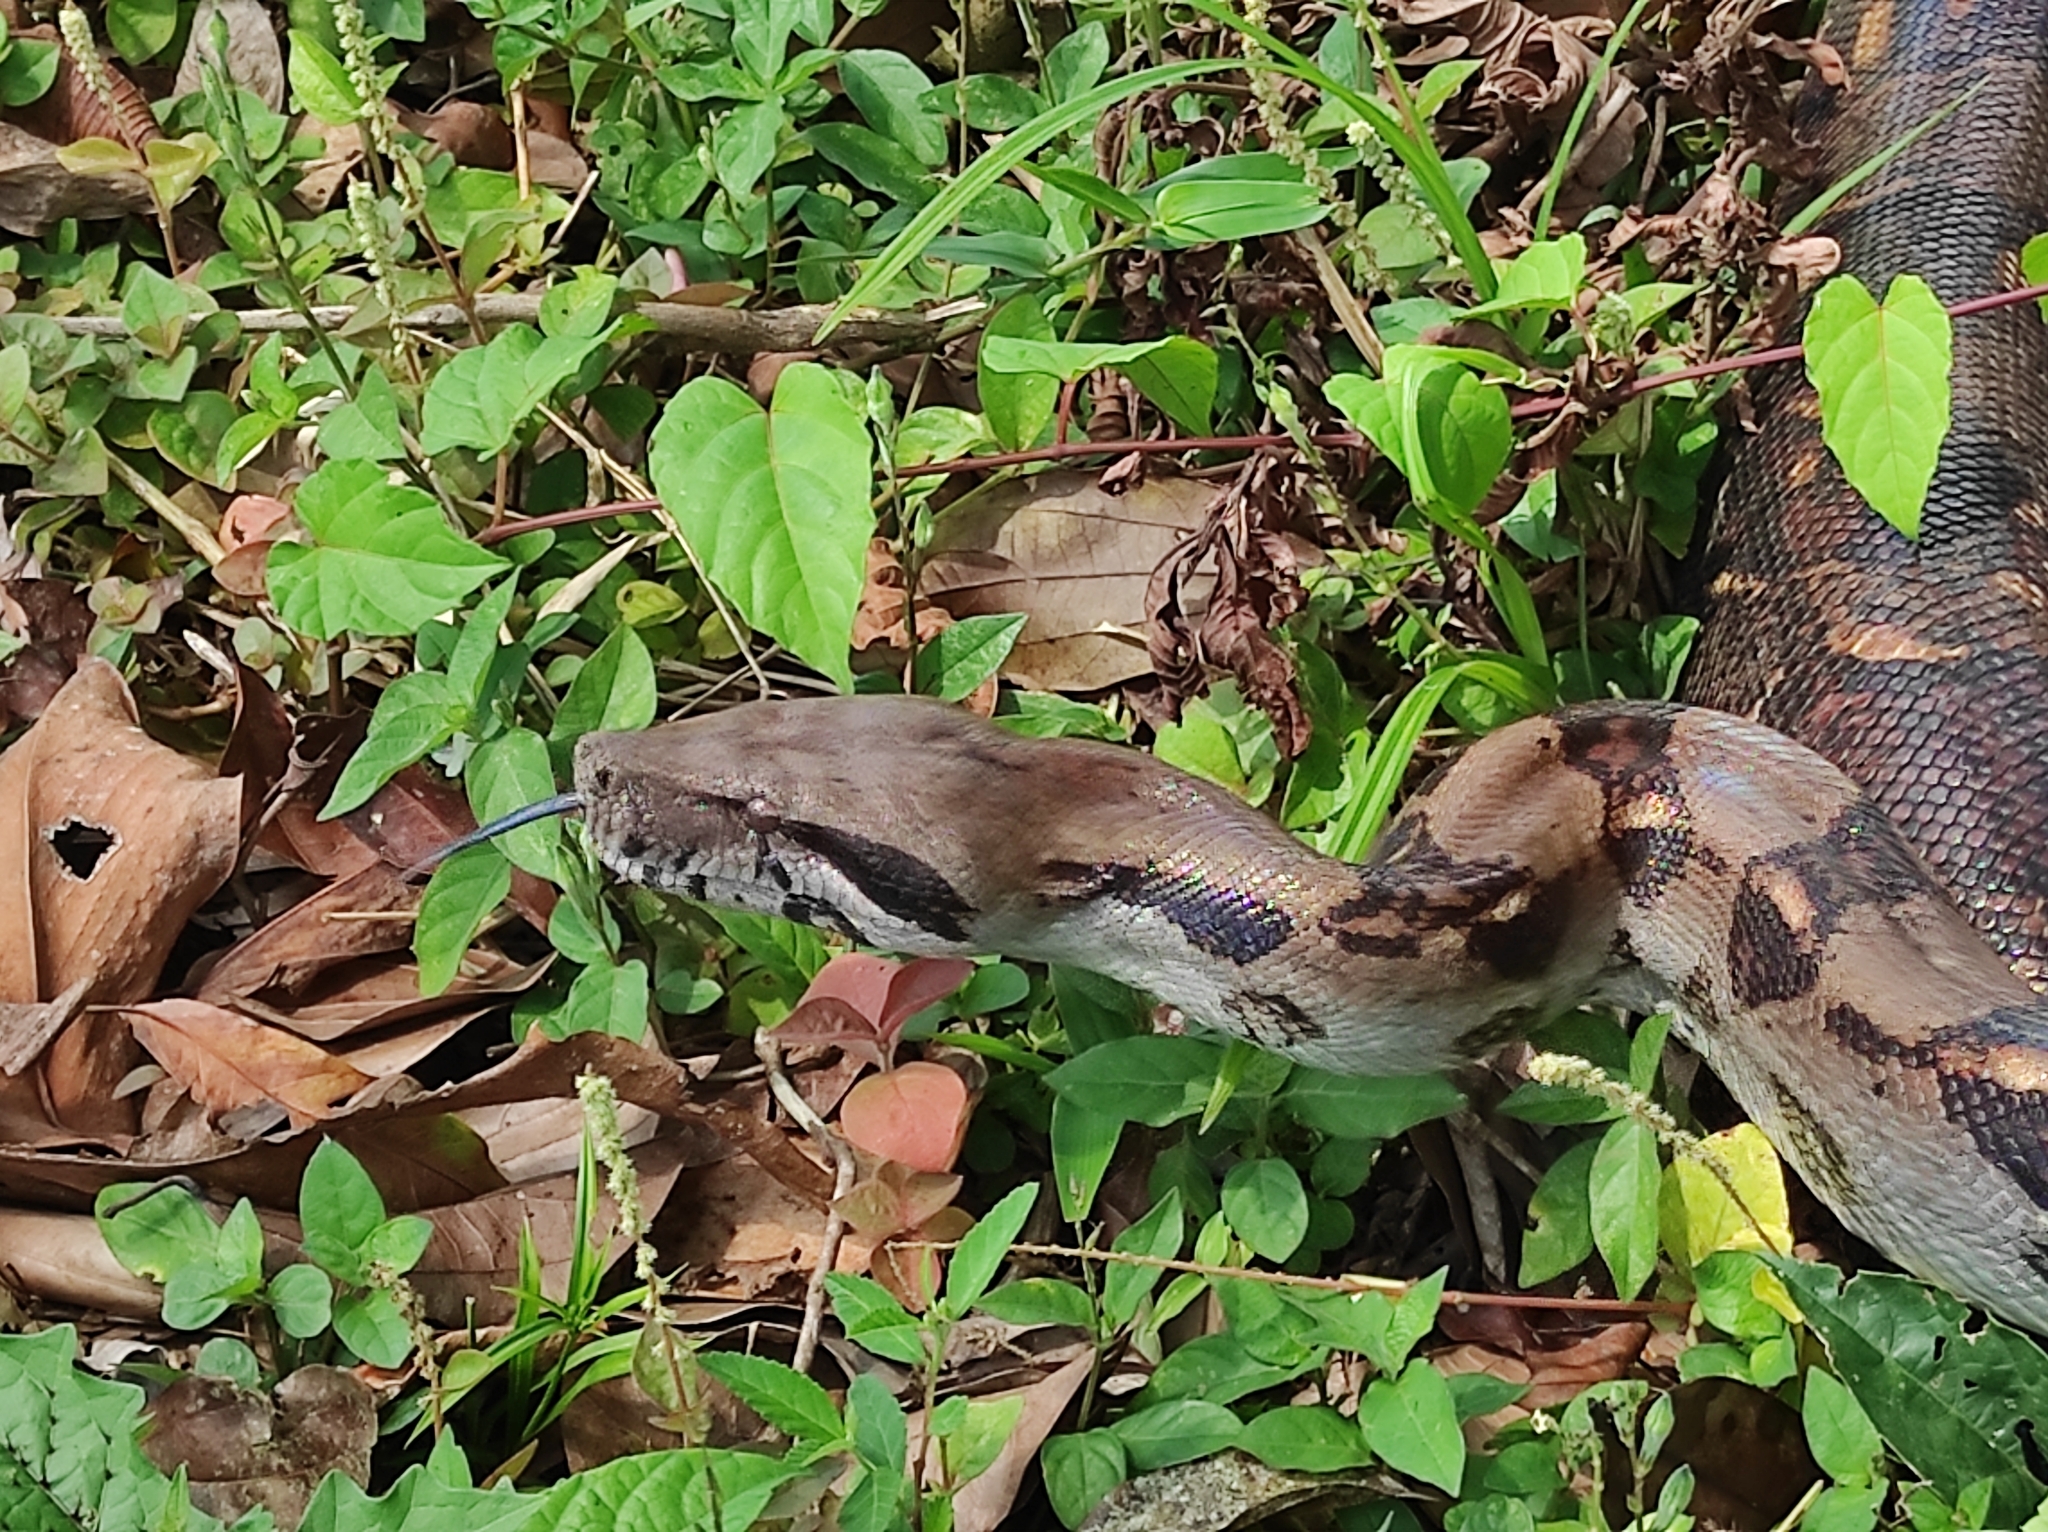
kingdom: Animalia
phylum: Chordata
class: Squamata
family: Boidae
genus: Boa
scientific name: Boa imperator
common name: Central american boa
